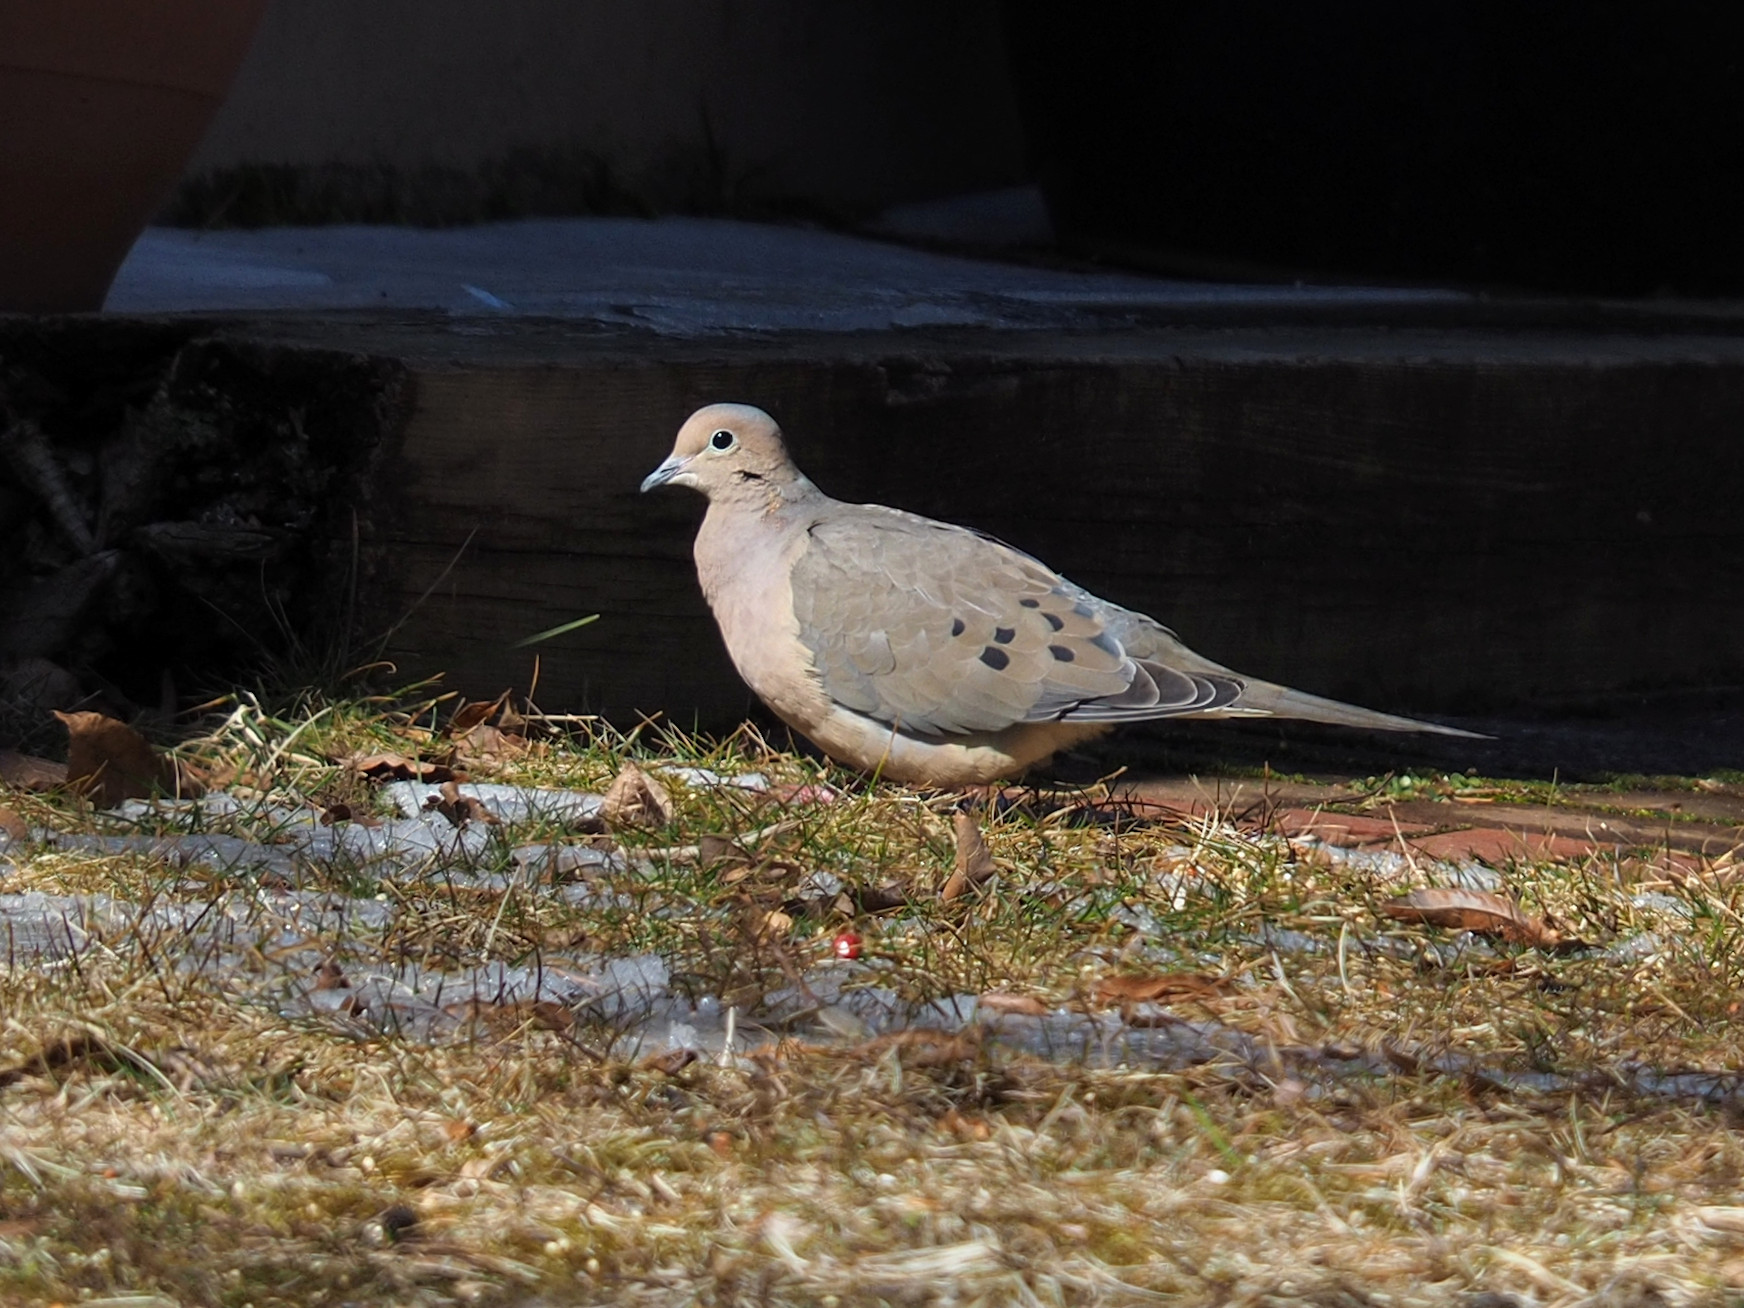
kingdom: Animalia
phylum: Chordata
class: Aves
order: Columbiformes
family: Columbidae
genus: Zenaida
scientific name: Zenaida macroura
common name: Mourning dove
